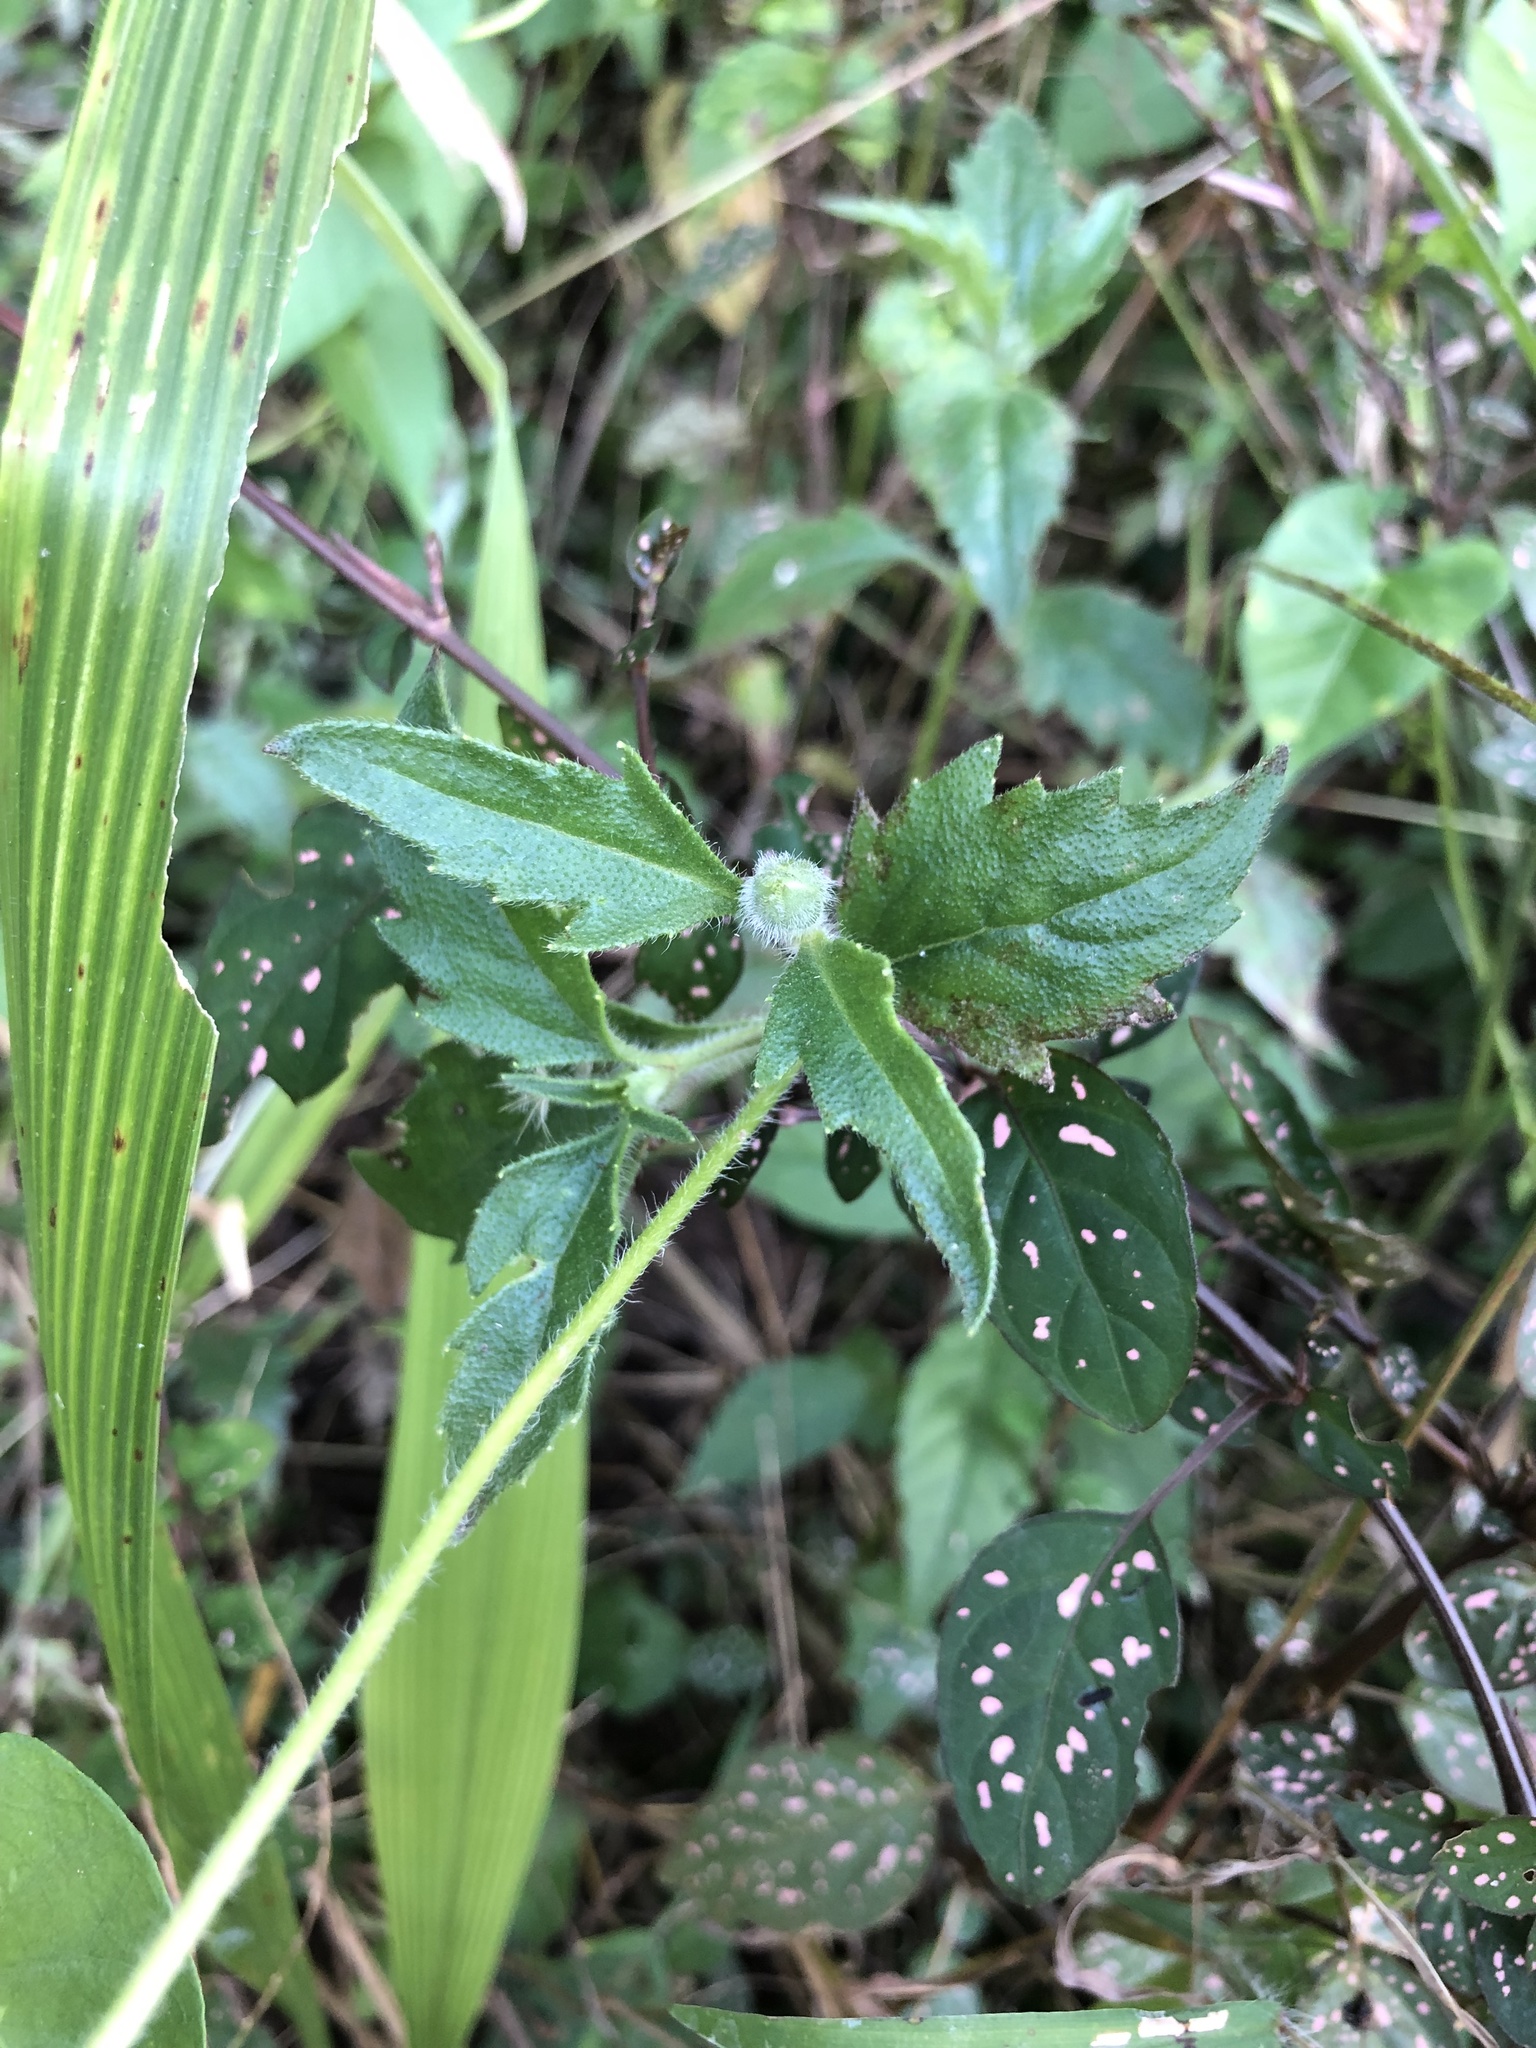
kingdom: Plantae
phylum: Tracheophyta
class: Magnoliopsida
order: Asterales
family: Asteraceae
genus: Tridax
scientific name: Tridax procumbens
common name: Coatbuttons
